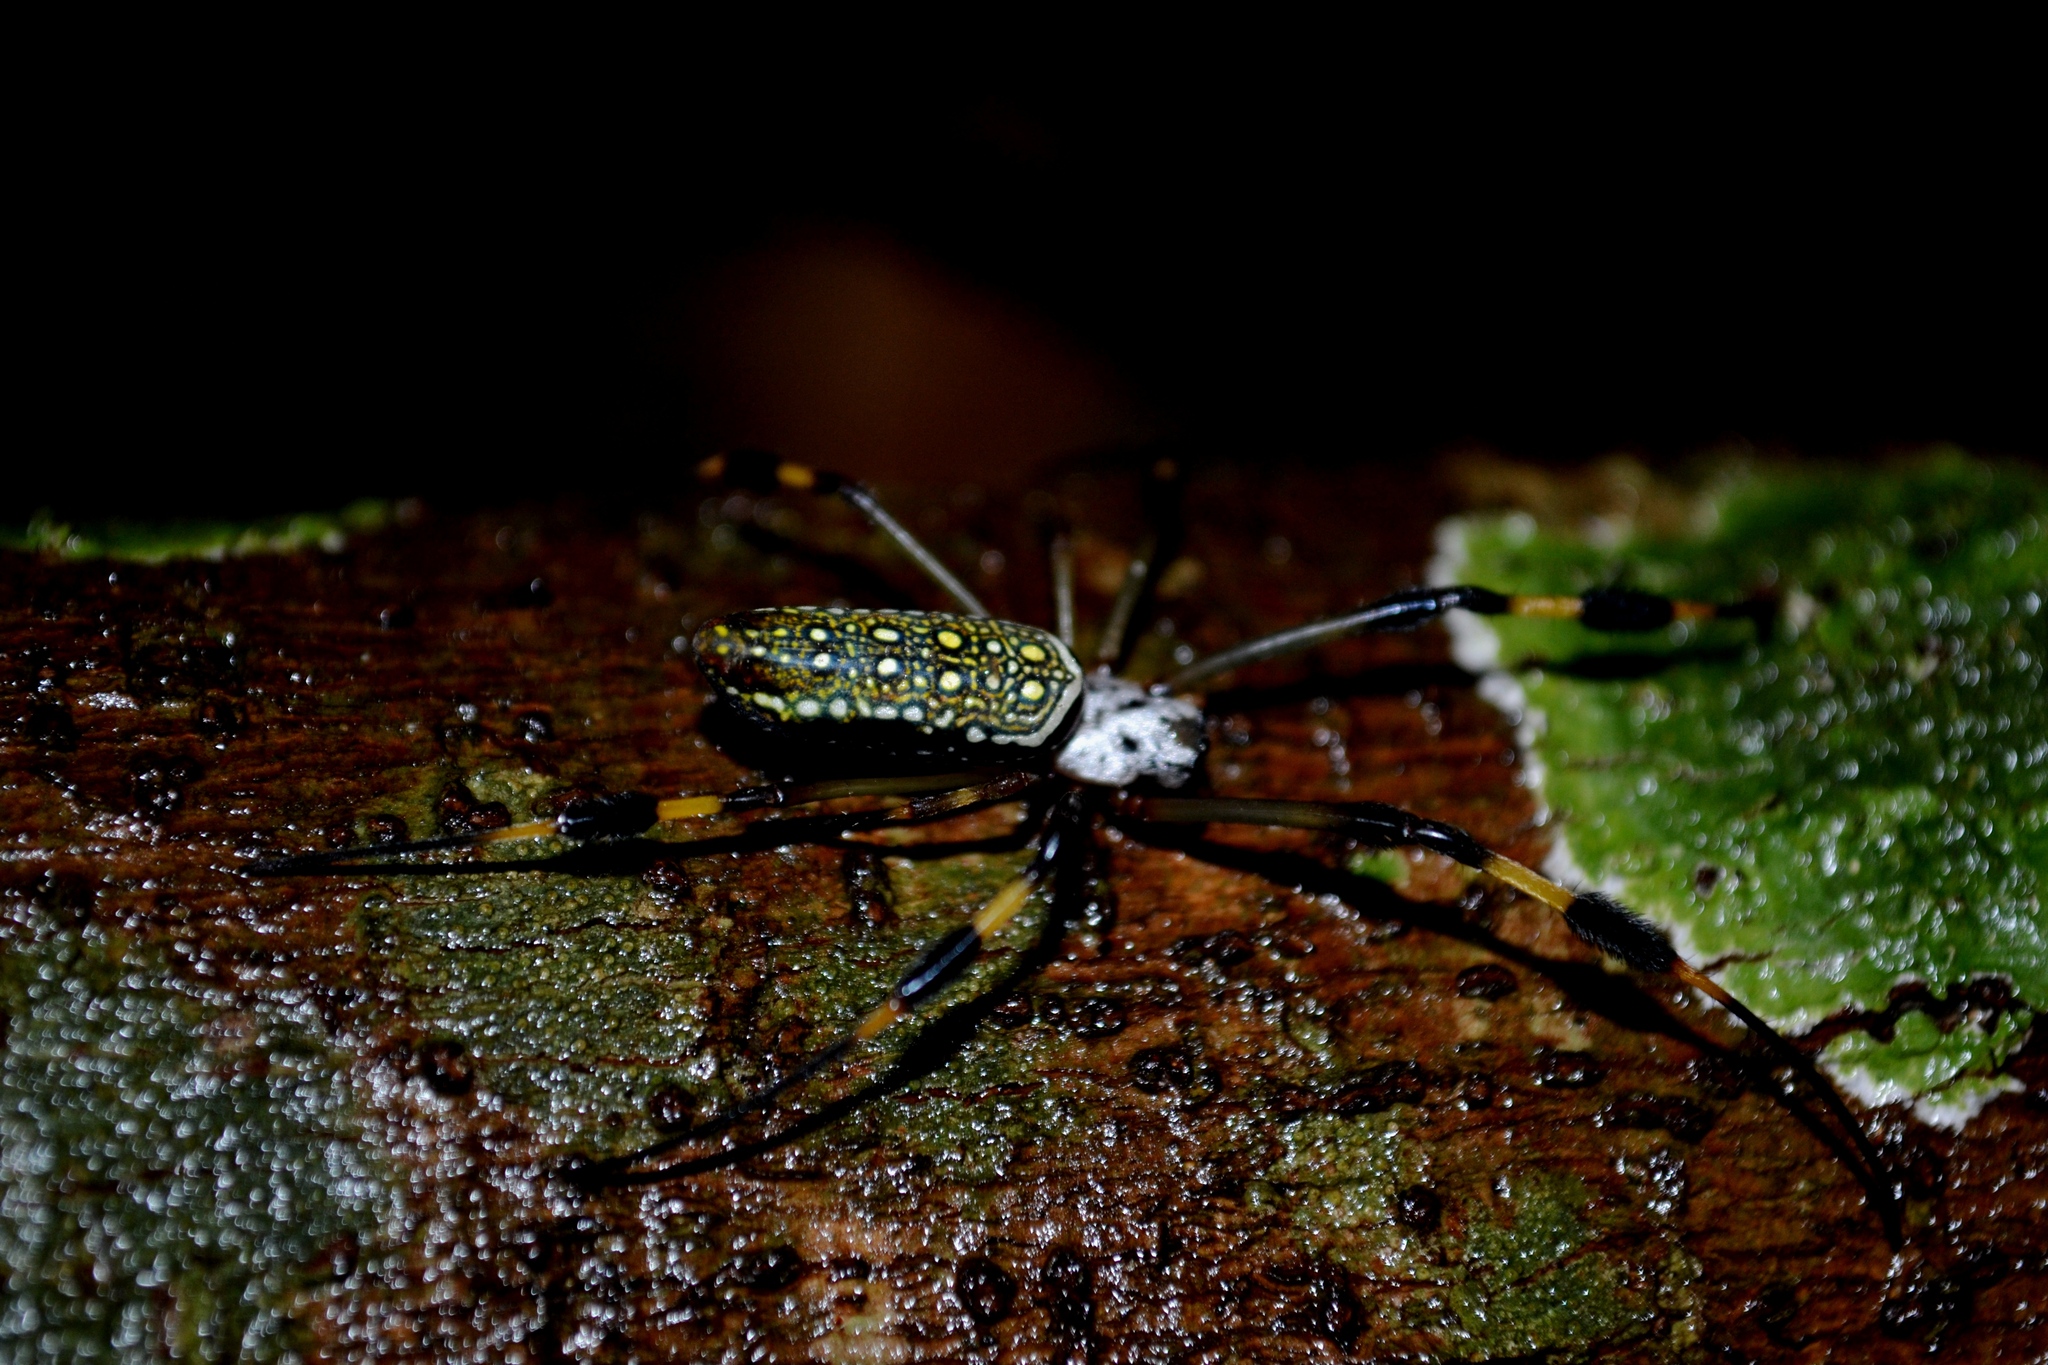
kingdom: Animalia
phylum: Arthropoda
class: Arachnida
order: Araneae
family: Araneidae
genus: Trichonephila
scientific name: Trichonephila clavipes
